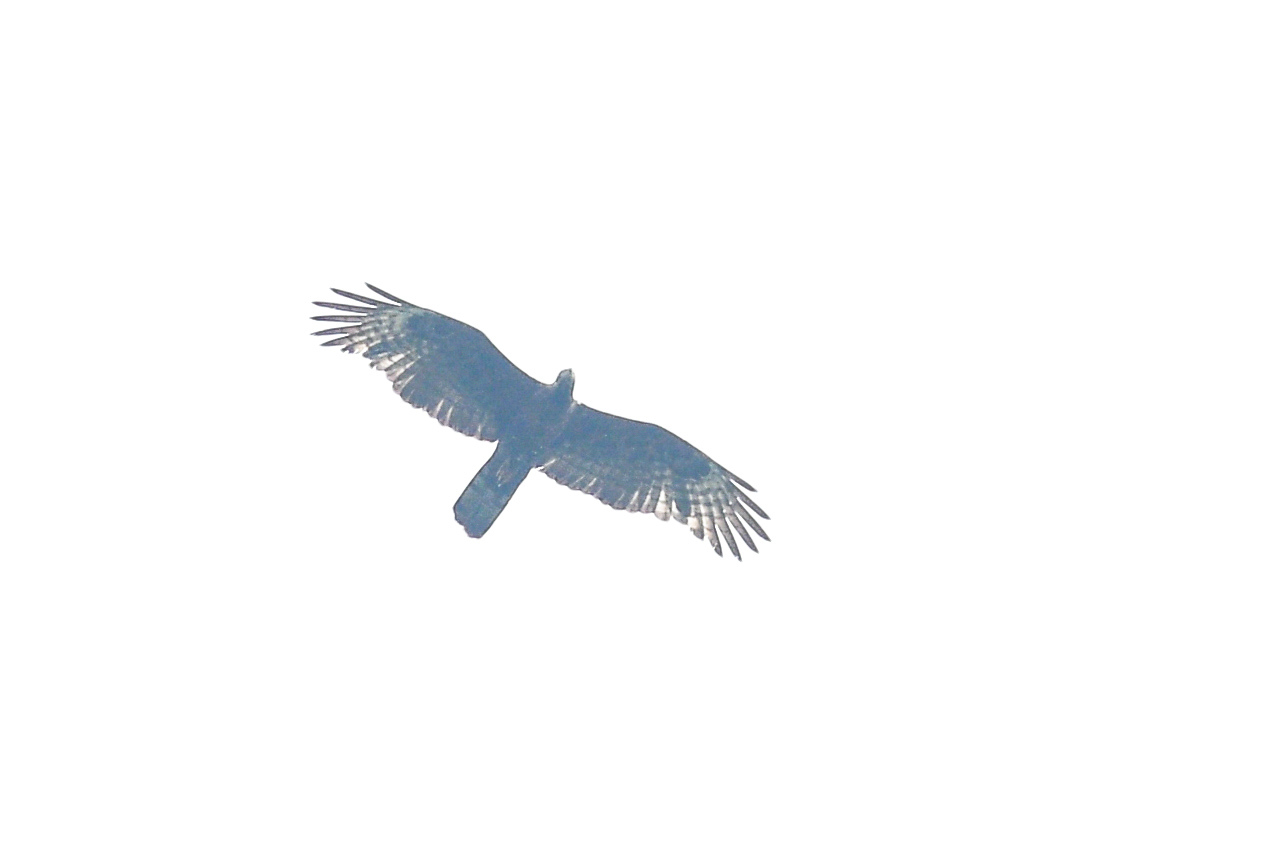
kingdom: Animalia
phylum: Chordata
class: Aves
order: Accipitriformes
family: Accipitridae
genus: Pernis
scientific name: Pernis ptilorhynchus
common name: Crested honey buzzard
